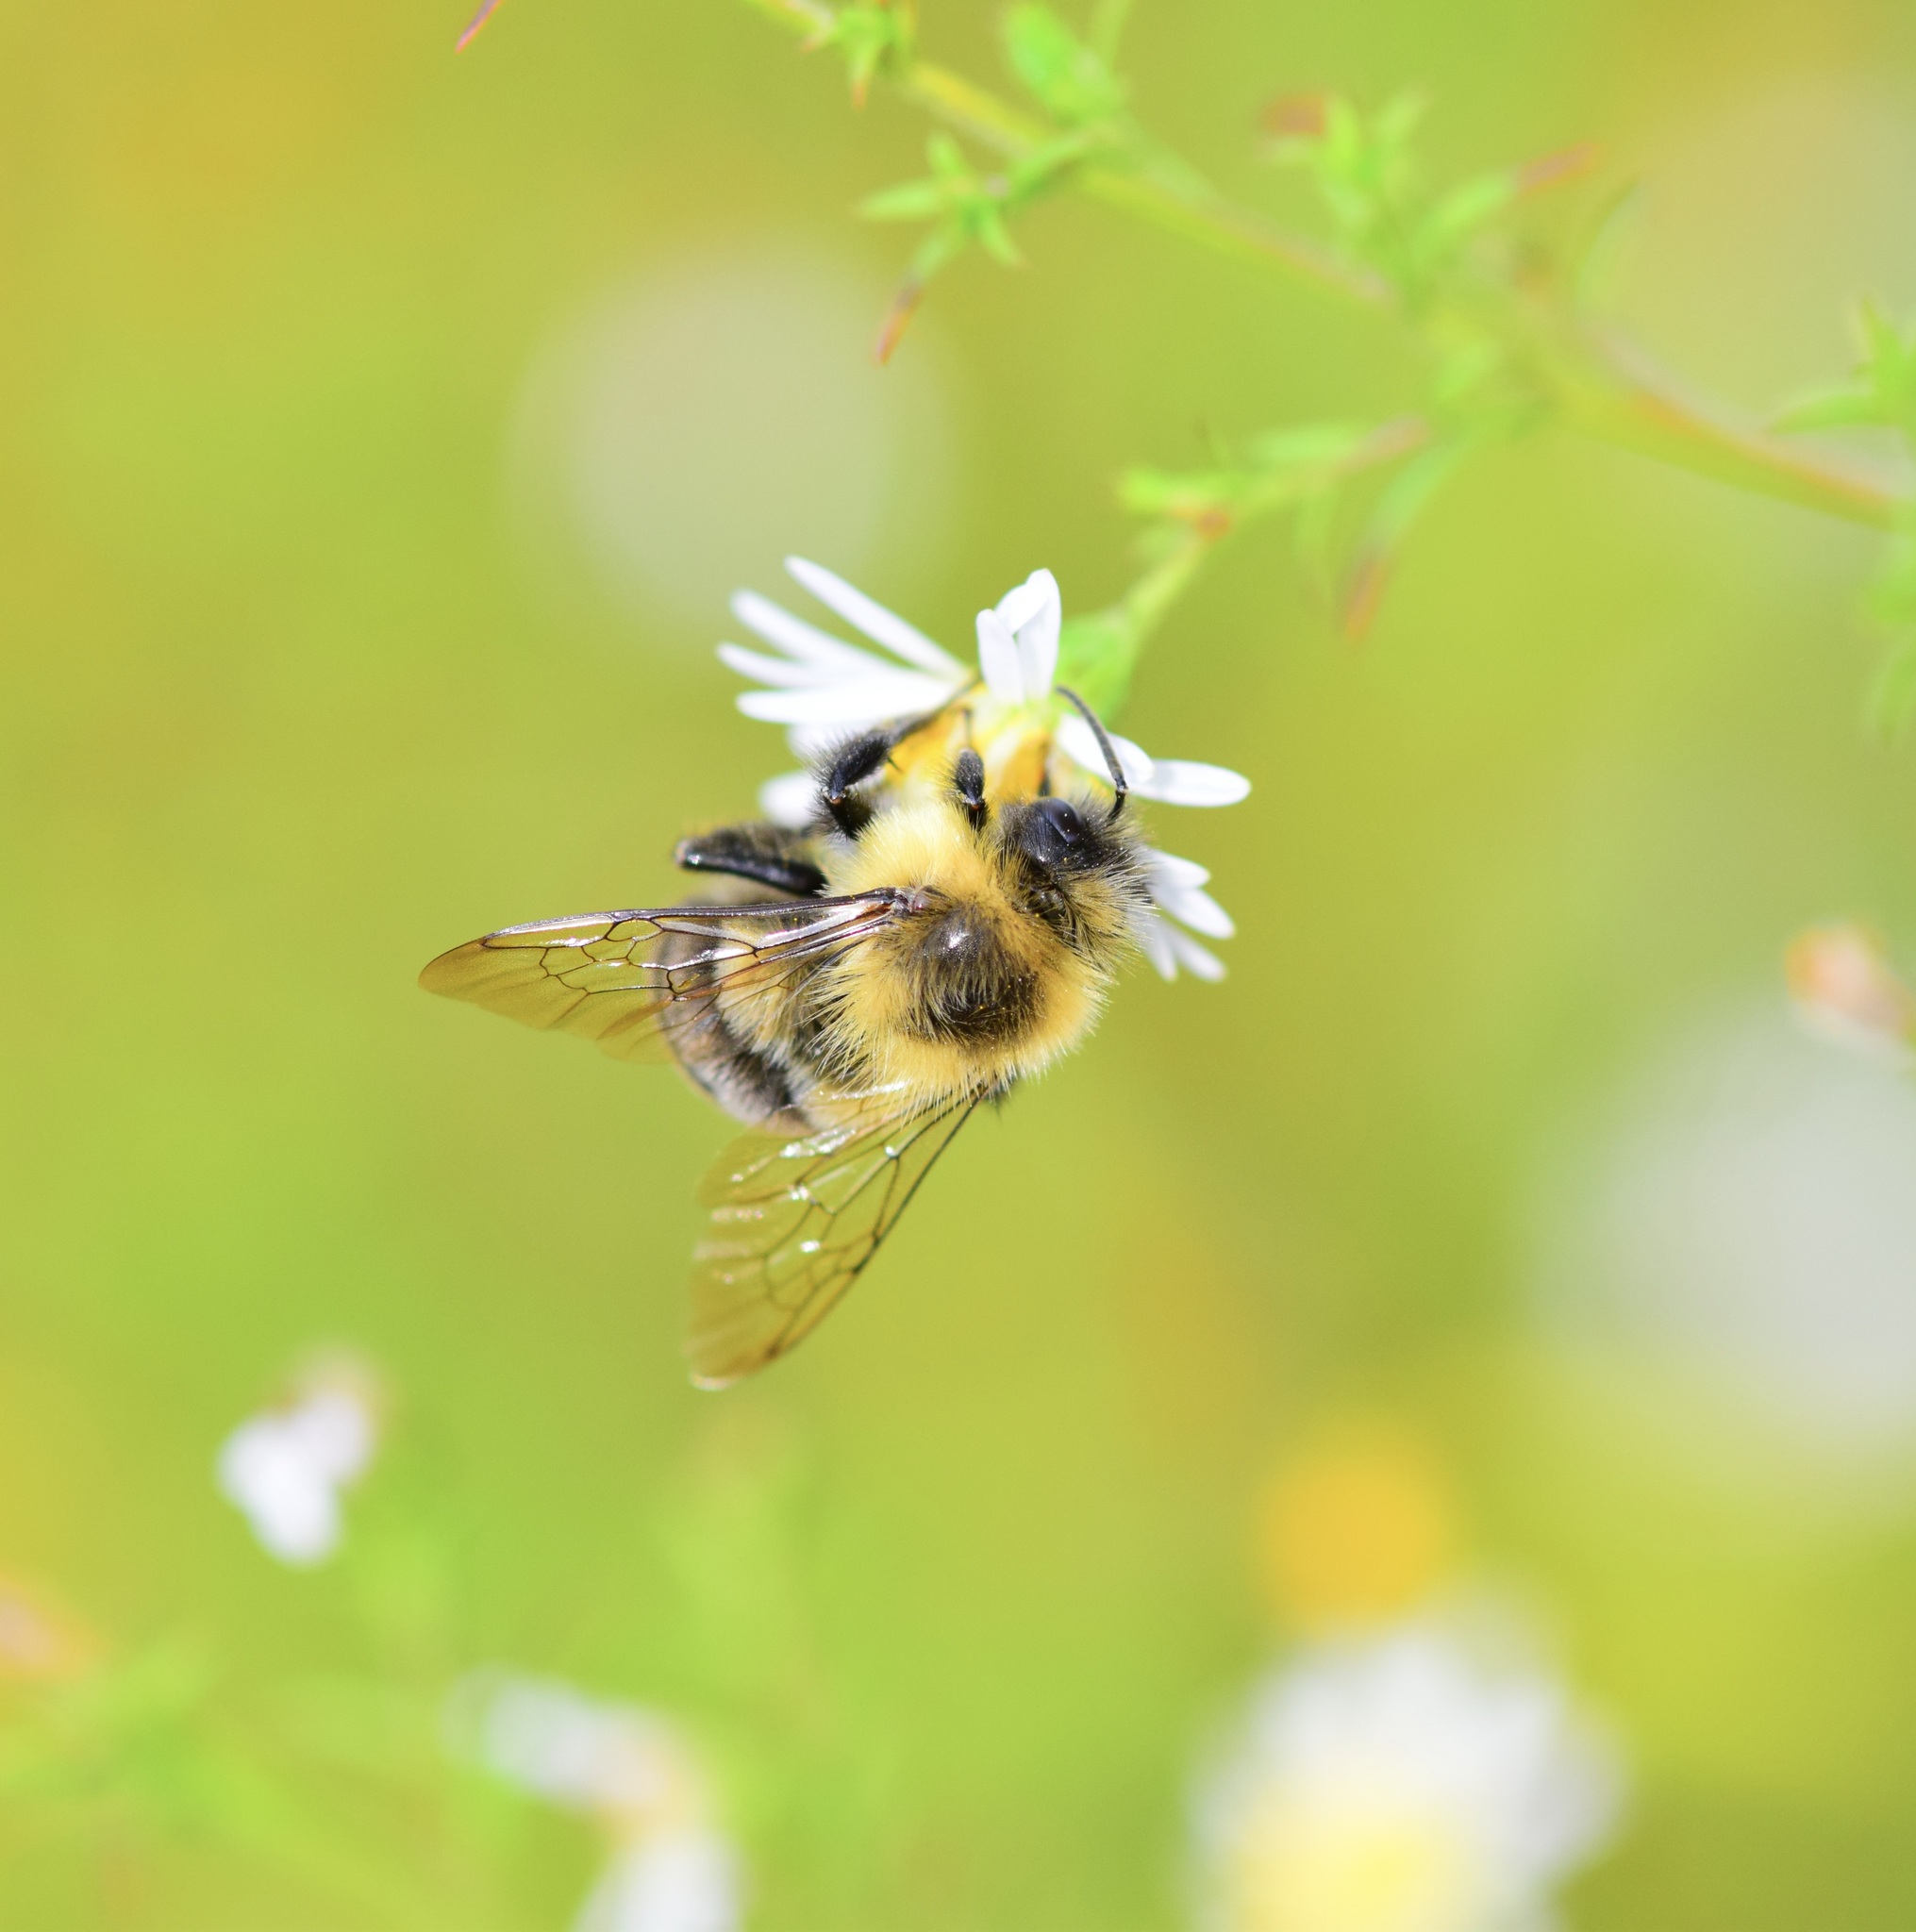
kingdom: Animalia
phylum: Arthropoda
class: Insecta
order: Hymenoptera
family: Apidae
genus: Bombus
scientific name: Bombus impatiens
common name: Common eastern bumble bee
